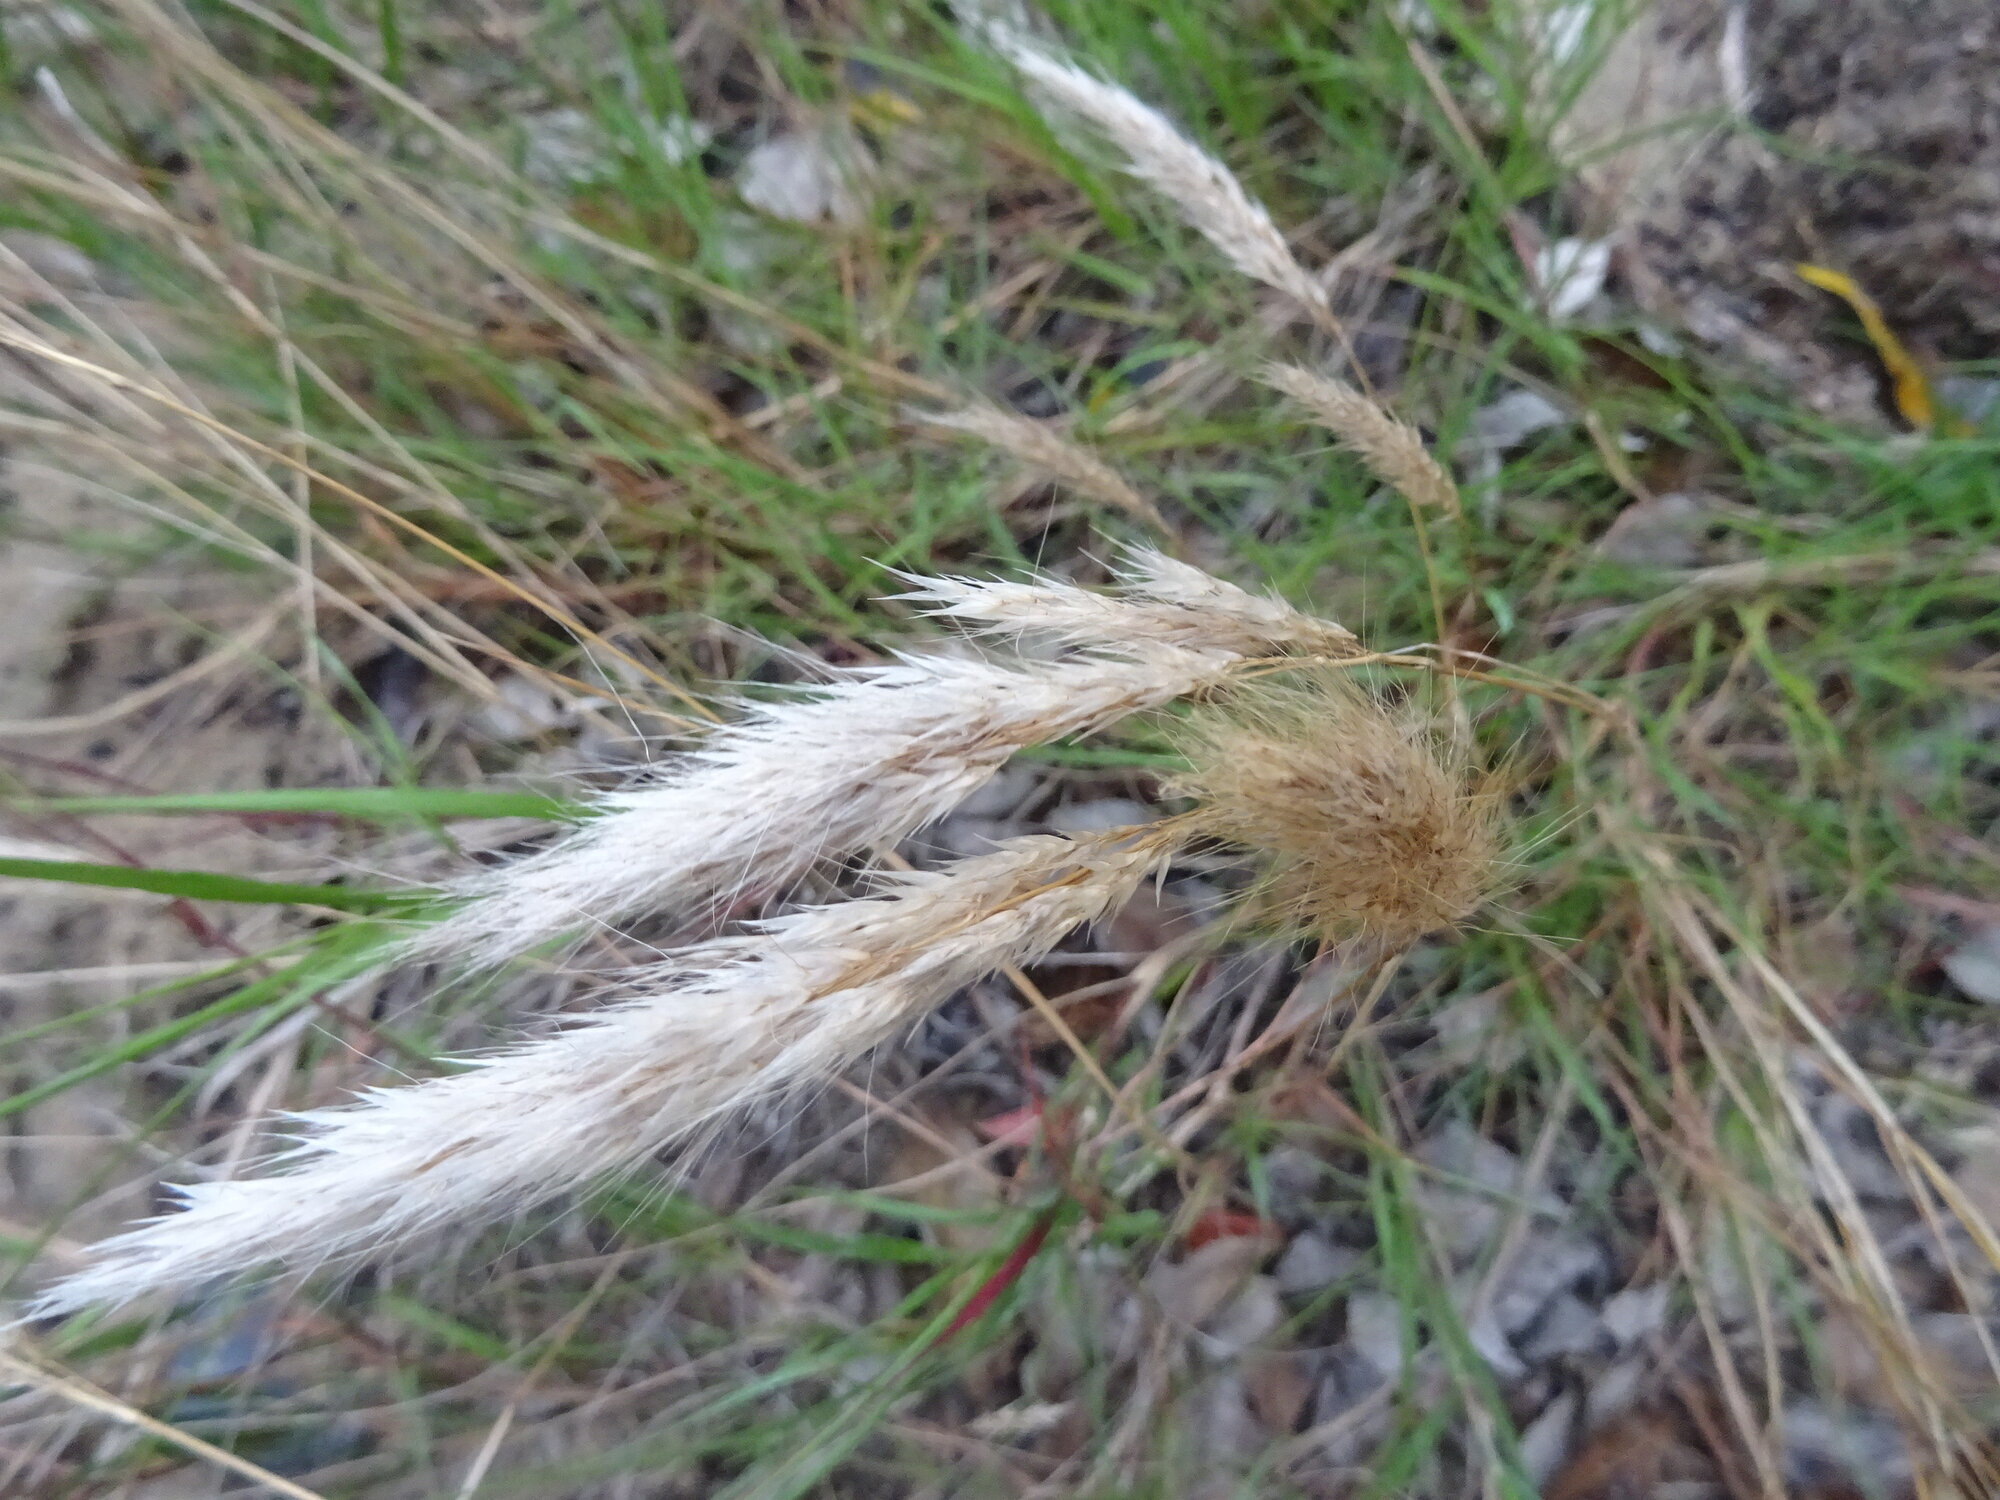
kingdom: Plantae
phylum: Tracheophyta
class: Liliopsida
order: Poales
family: Poaceae
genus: Imperata
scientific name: Imperata cylindrica
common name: Cogongrass
